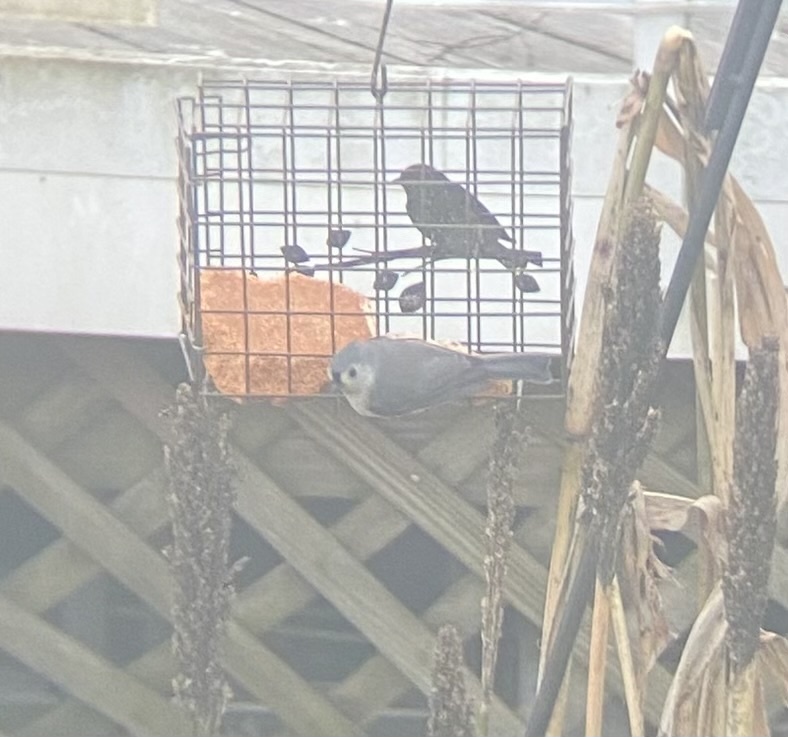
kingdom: Animalia
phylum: Chordata
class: Aves
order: Passeriformes
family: Paridae
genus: Baeolophus
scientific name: Baeolophus bicolor
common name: Tufted titmouse
